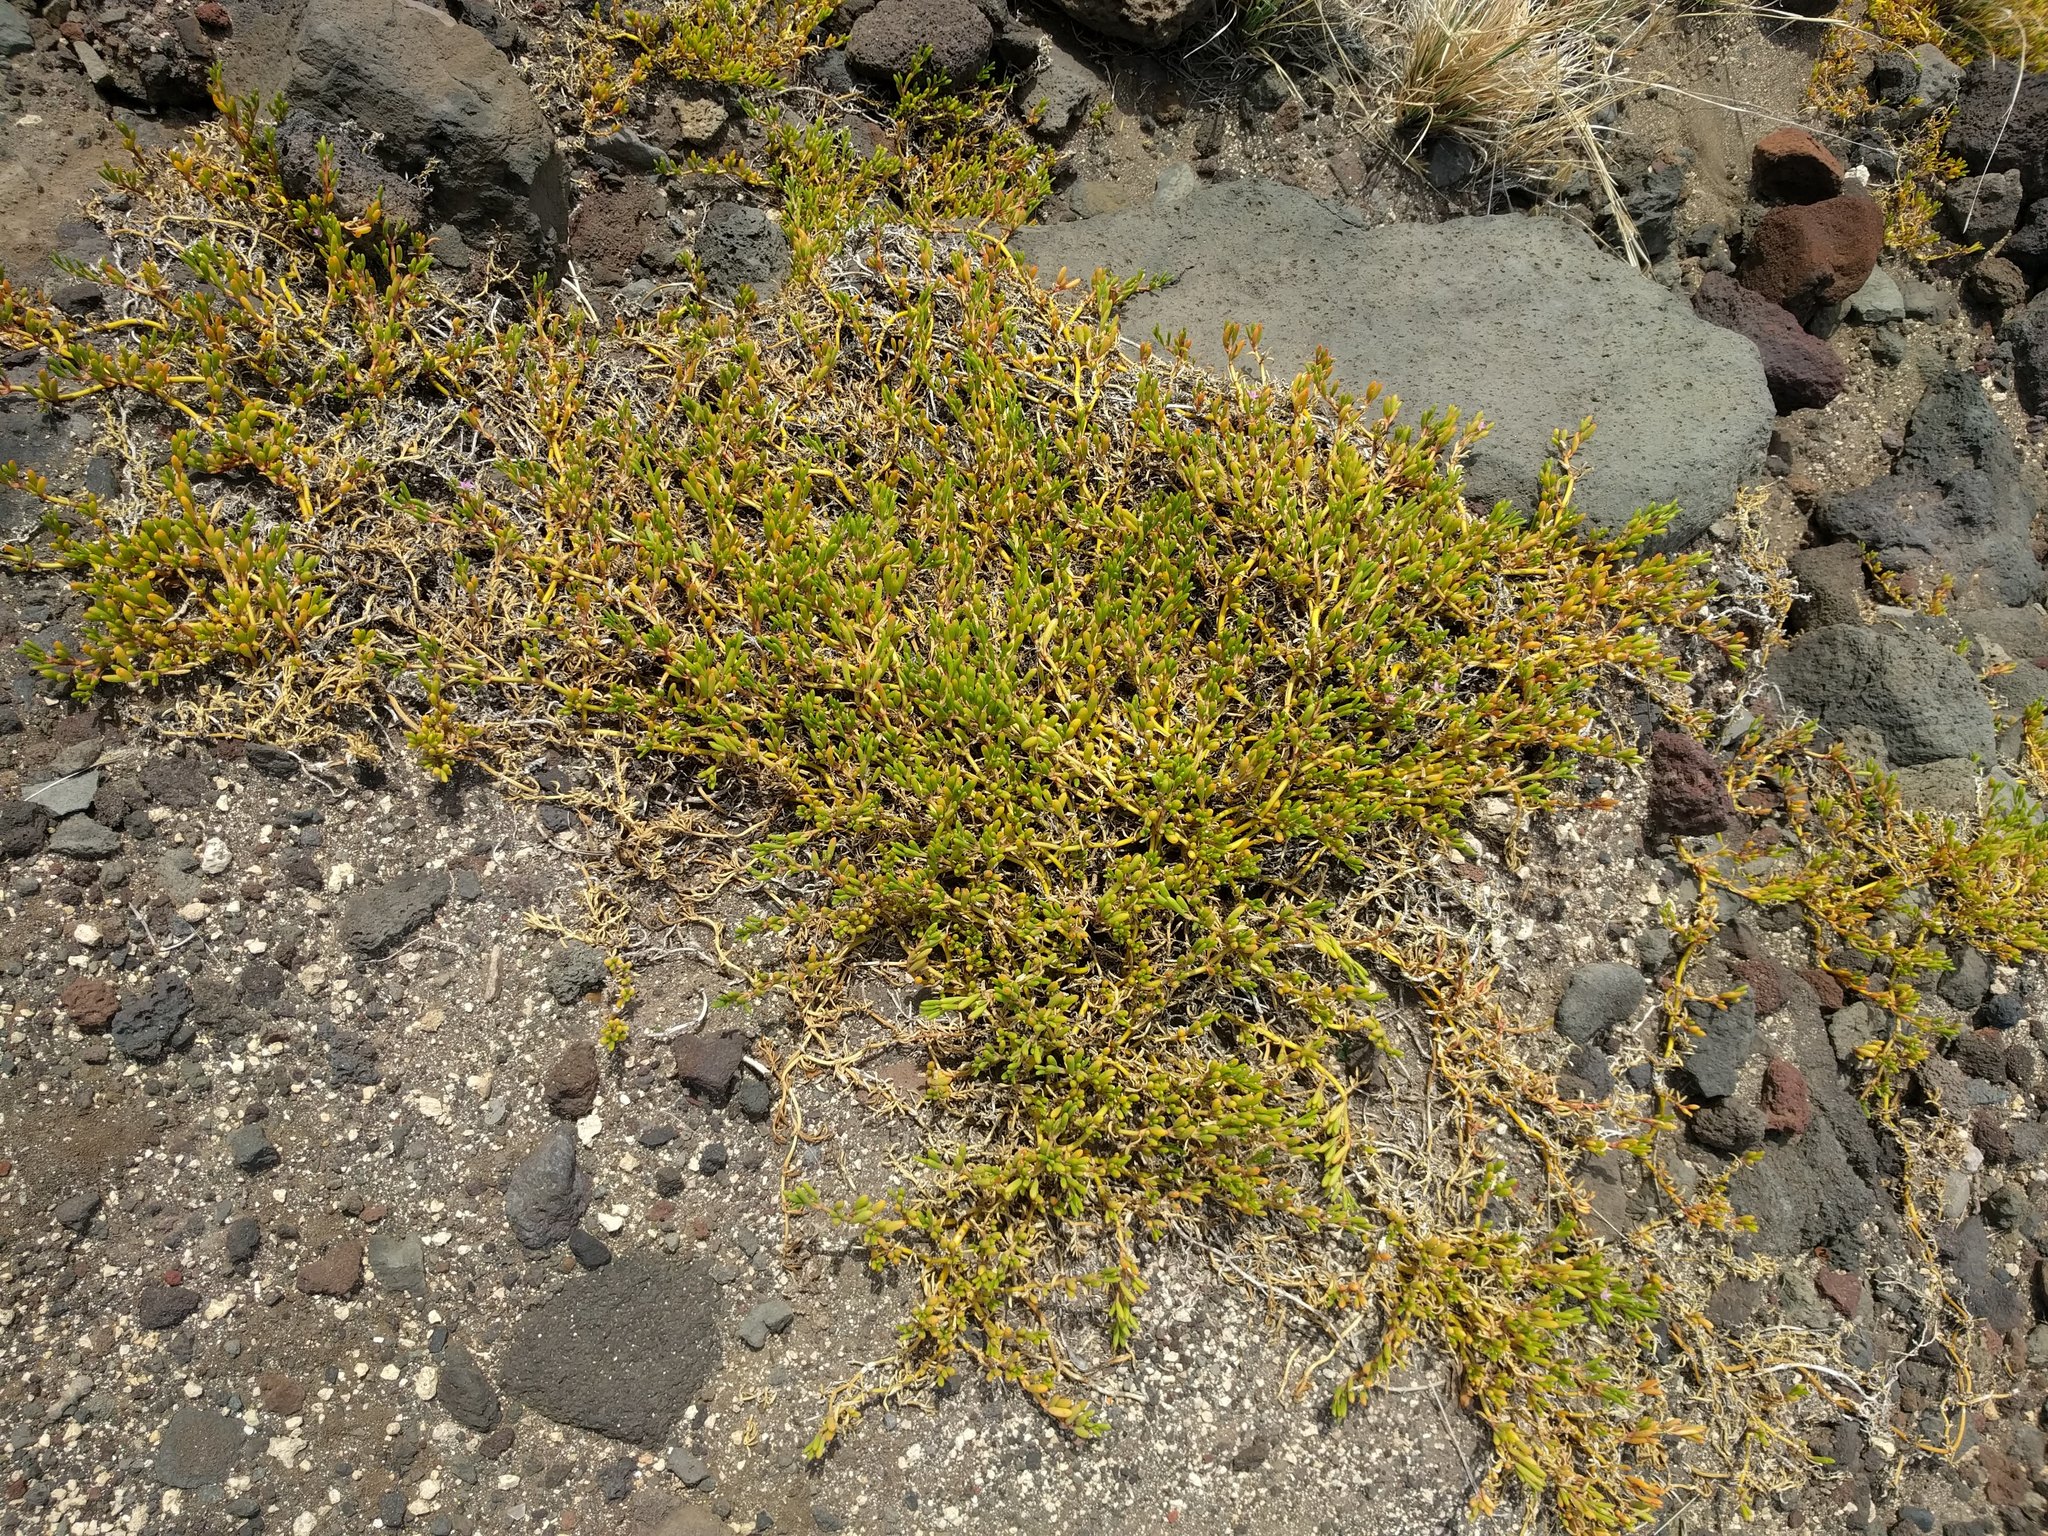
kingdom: Plantae
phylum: Tracheophyta
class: Magnoliopsida
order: Caryophyllales
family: Aizoaceae
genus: Sesuvium
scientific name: Sesuvium portulacastrum
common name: Sea-purslane
